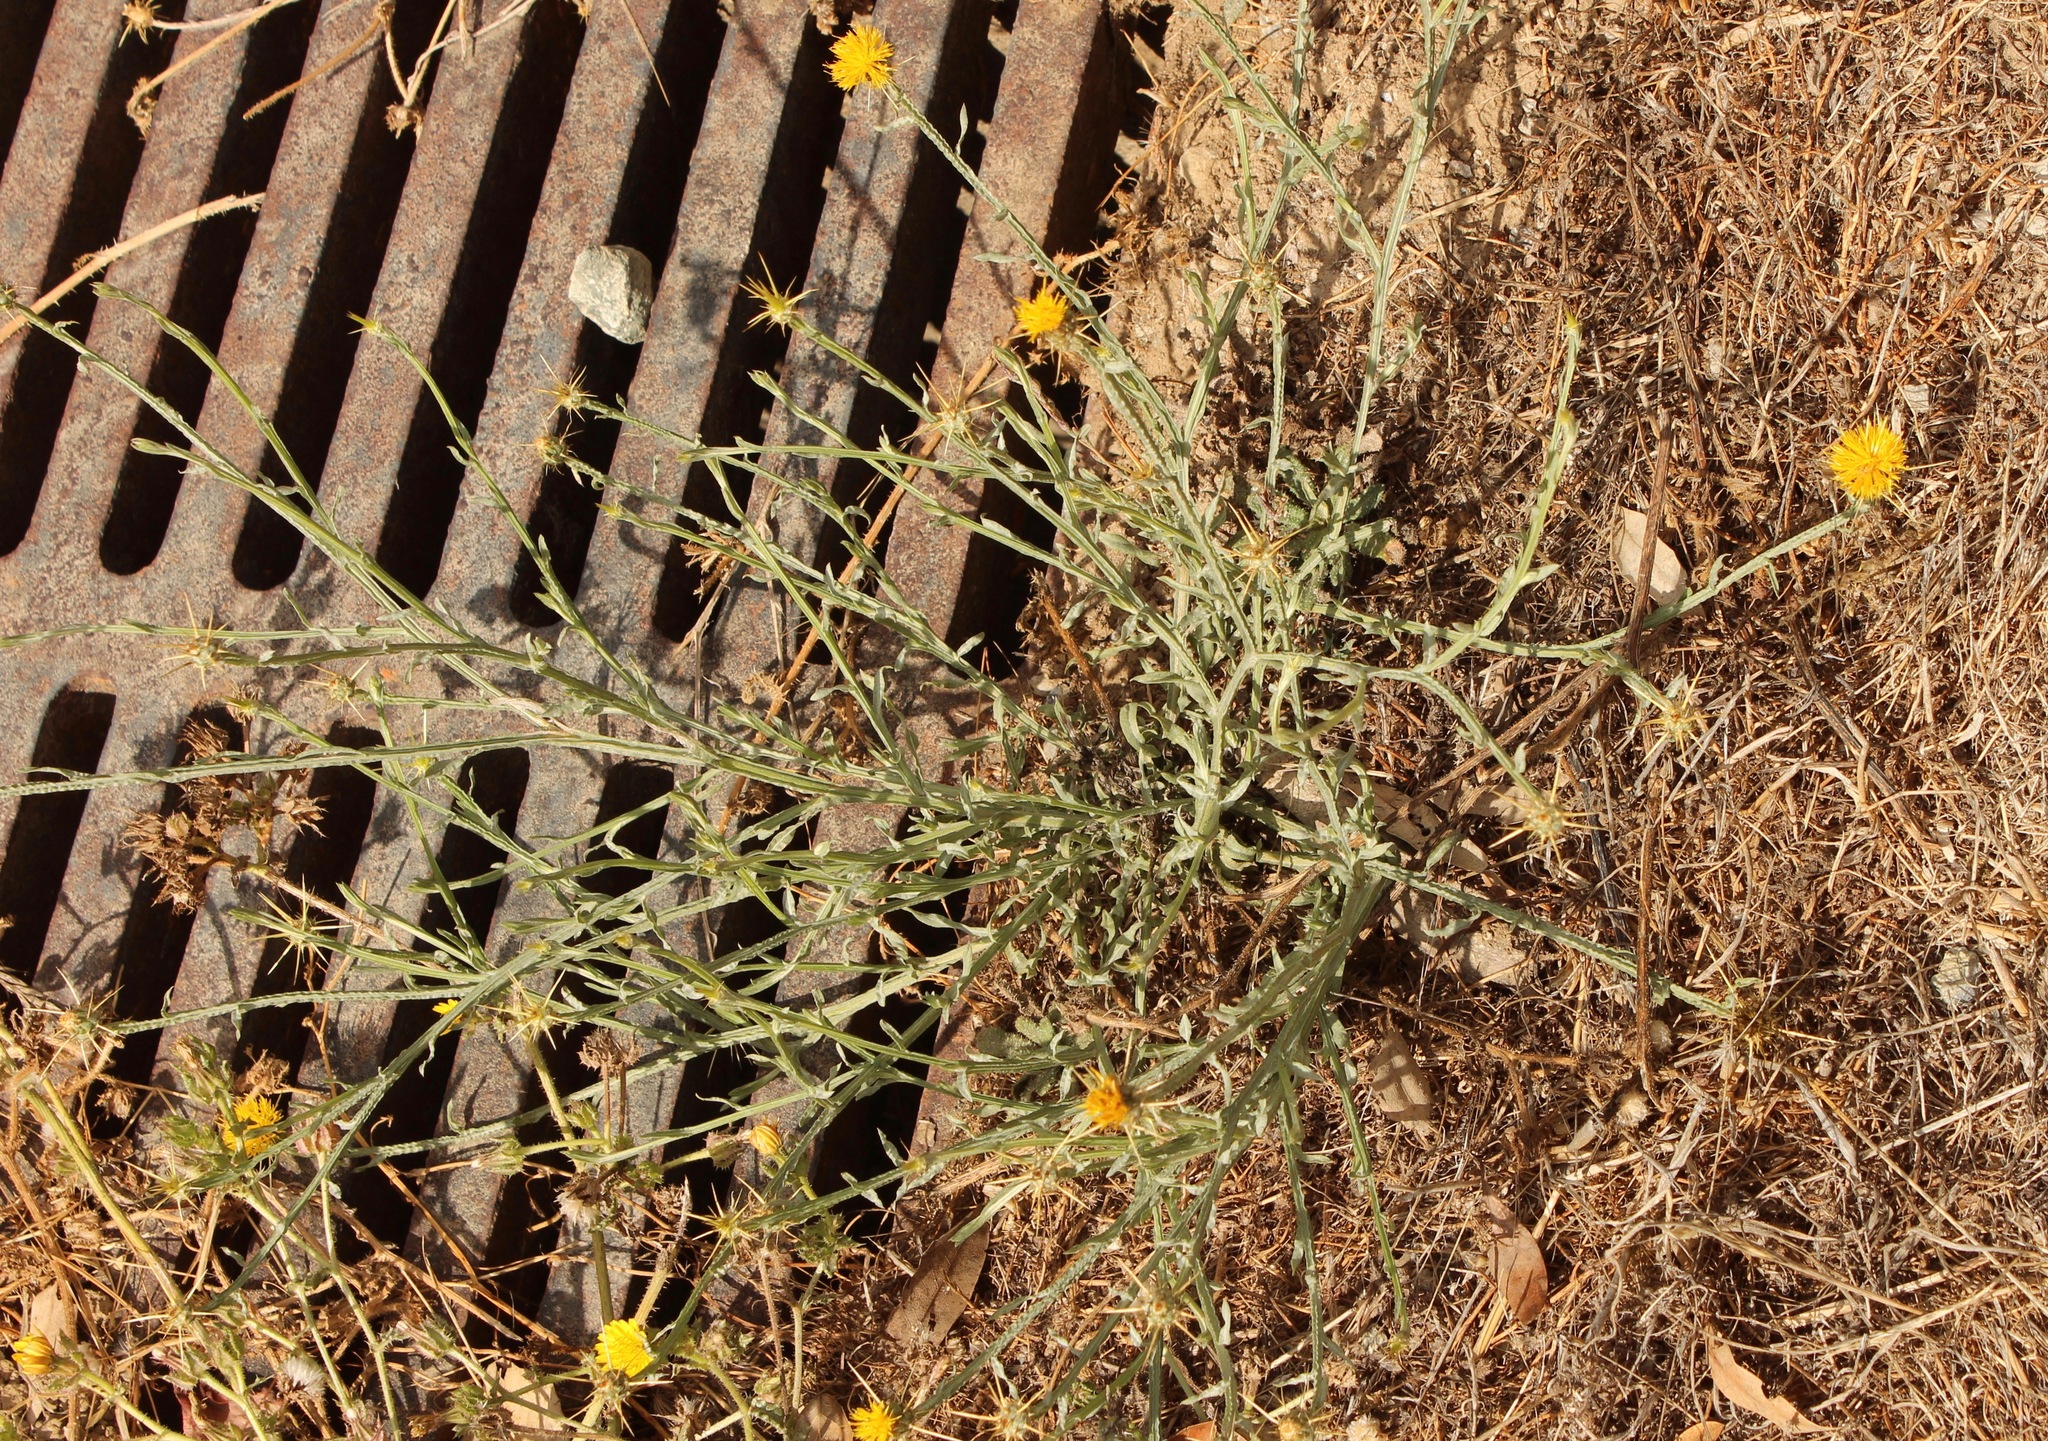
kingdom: Plantae
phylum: Tracheophyta
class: Magnoliopsida
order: Asterales
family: Asteraceae
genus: Centaurea
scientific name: Centaurea solstitialis
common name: Yellow star-thistle
